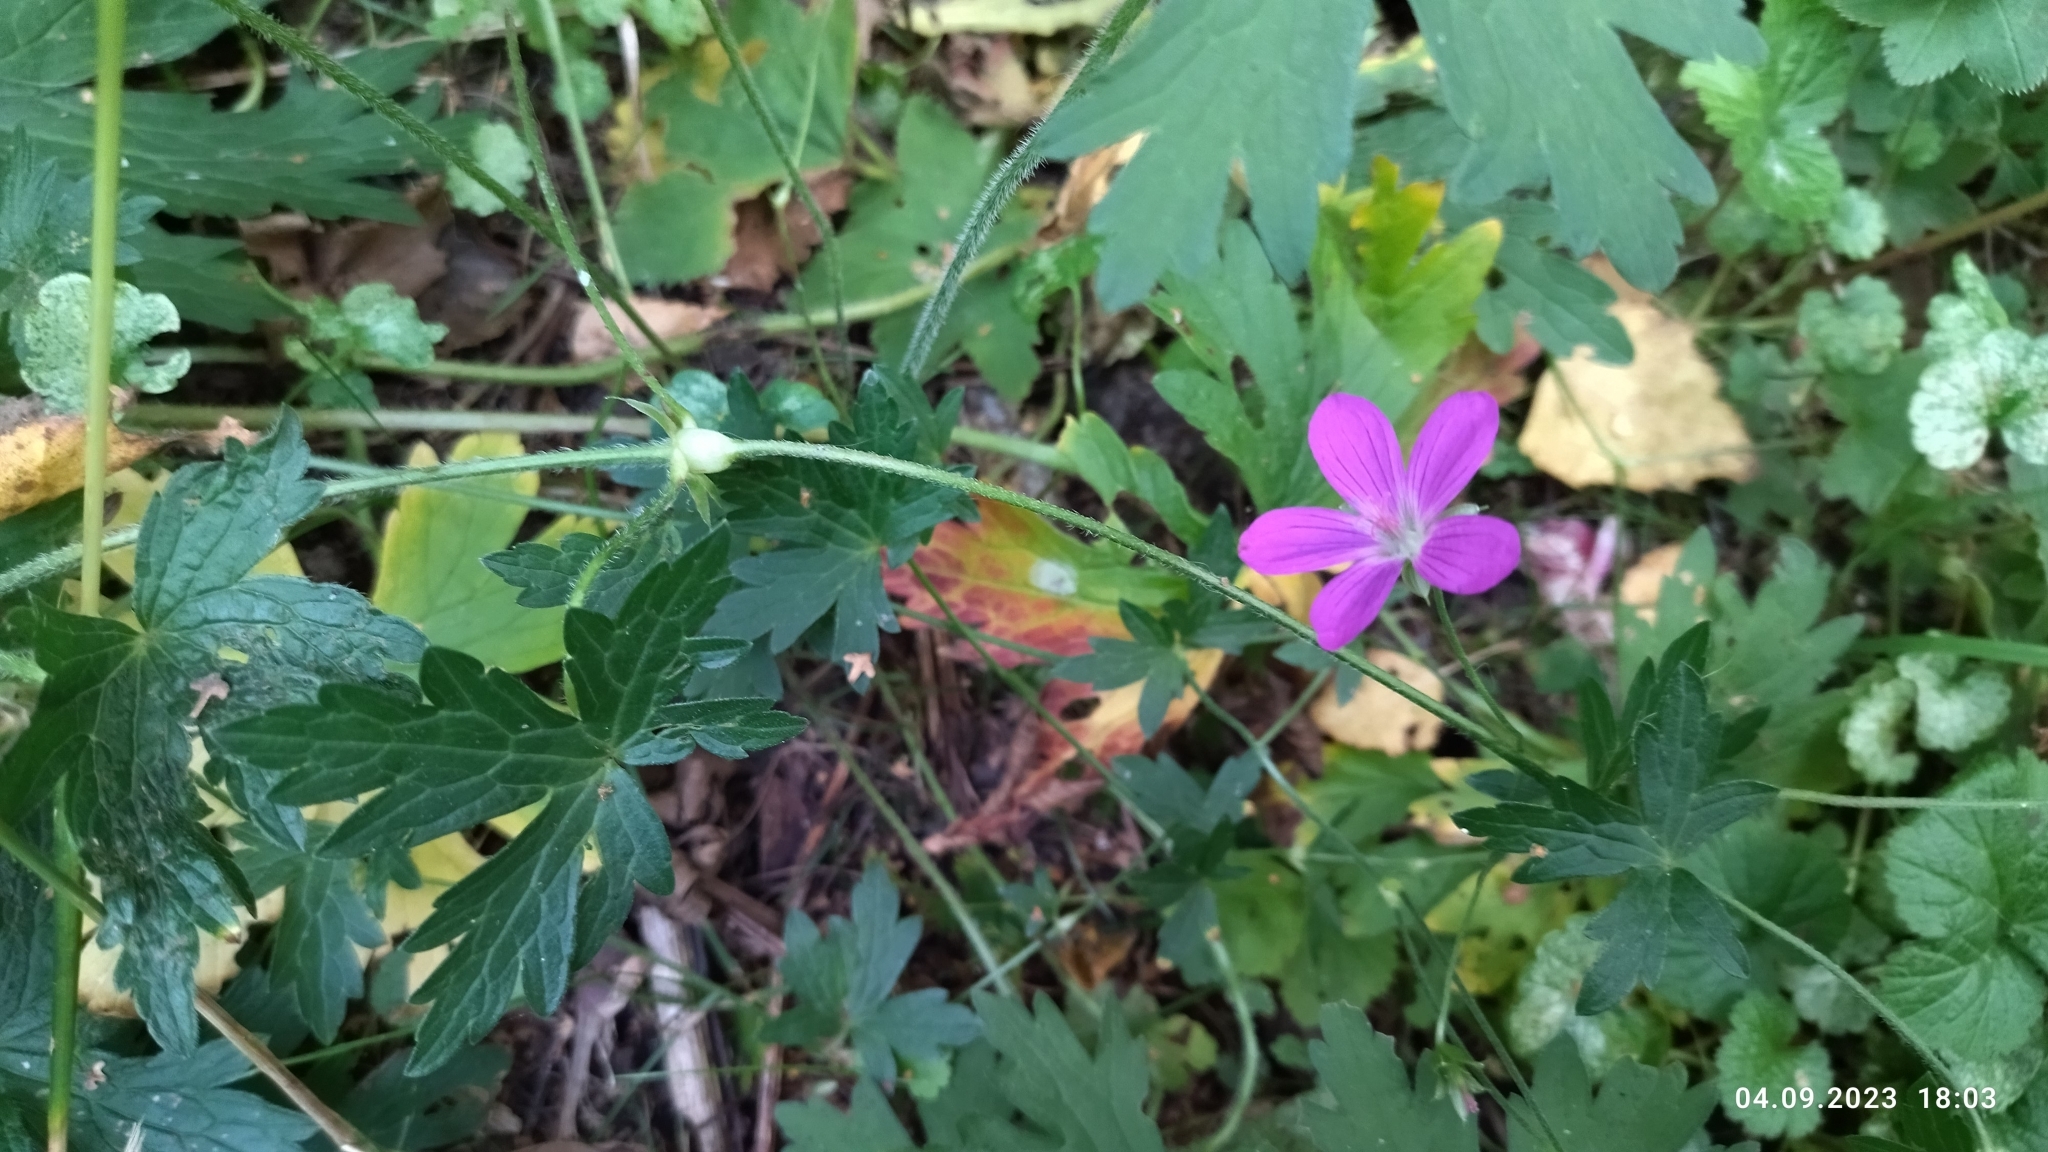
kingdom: Plantae
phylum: Tracheophyta
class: Magnoliopsida
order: Geraniales
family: Geraniaceae
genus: Geranium
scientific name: Geranium palustre
